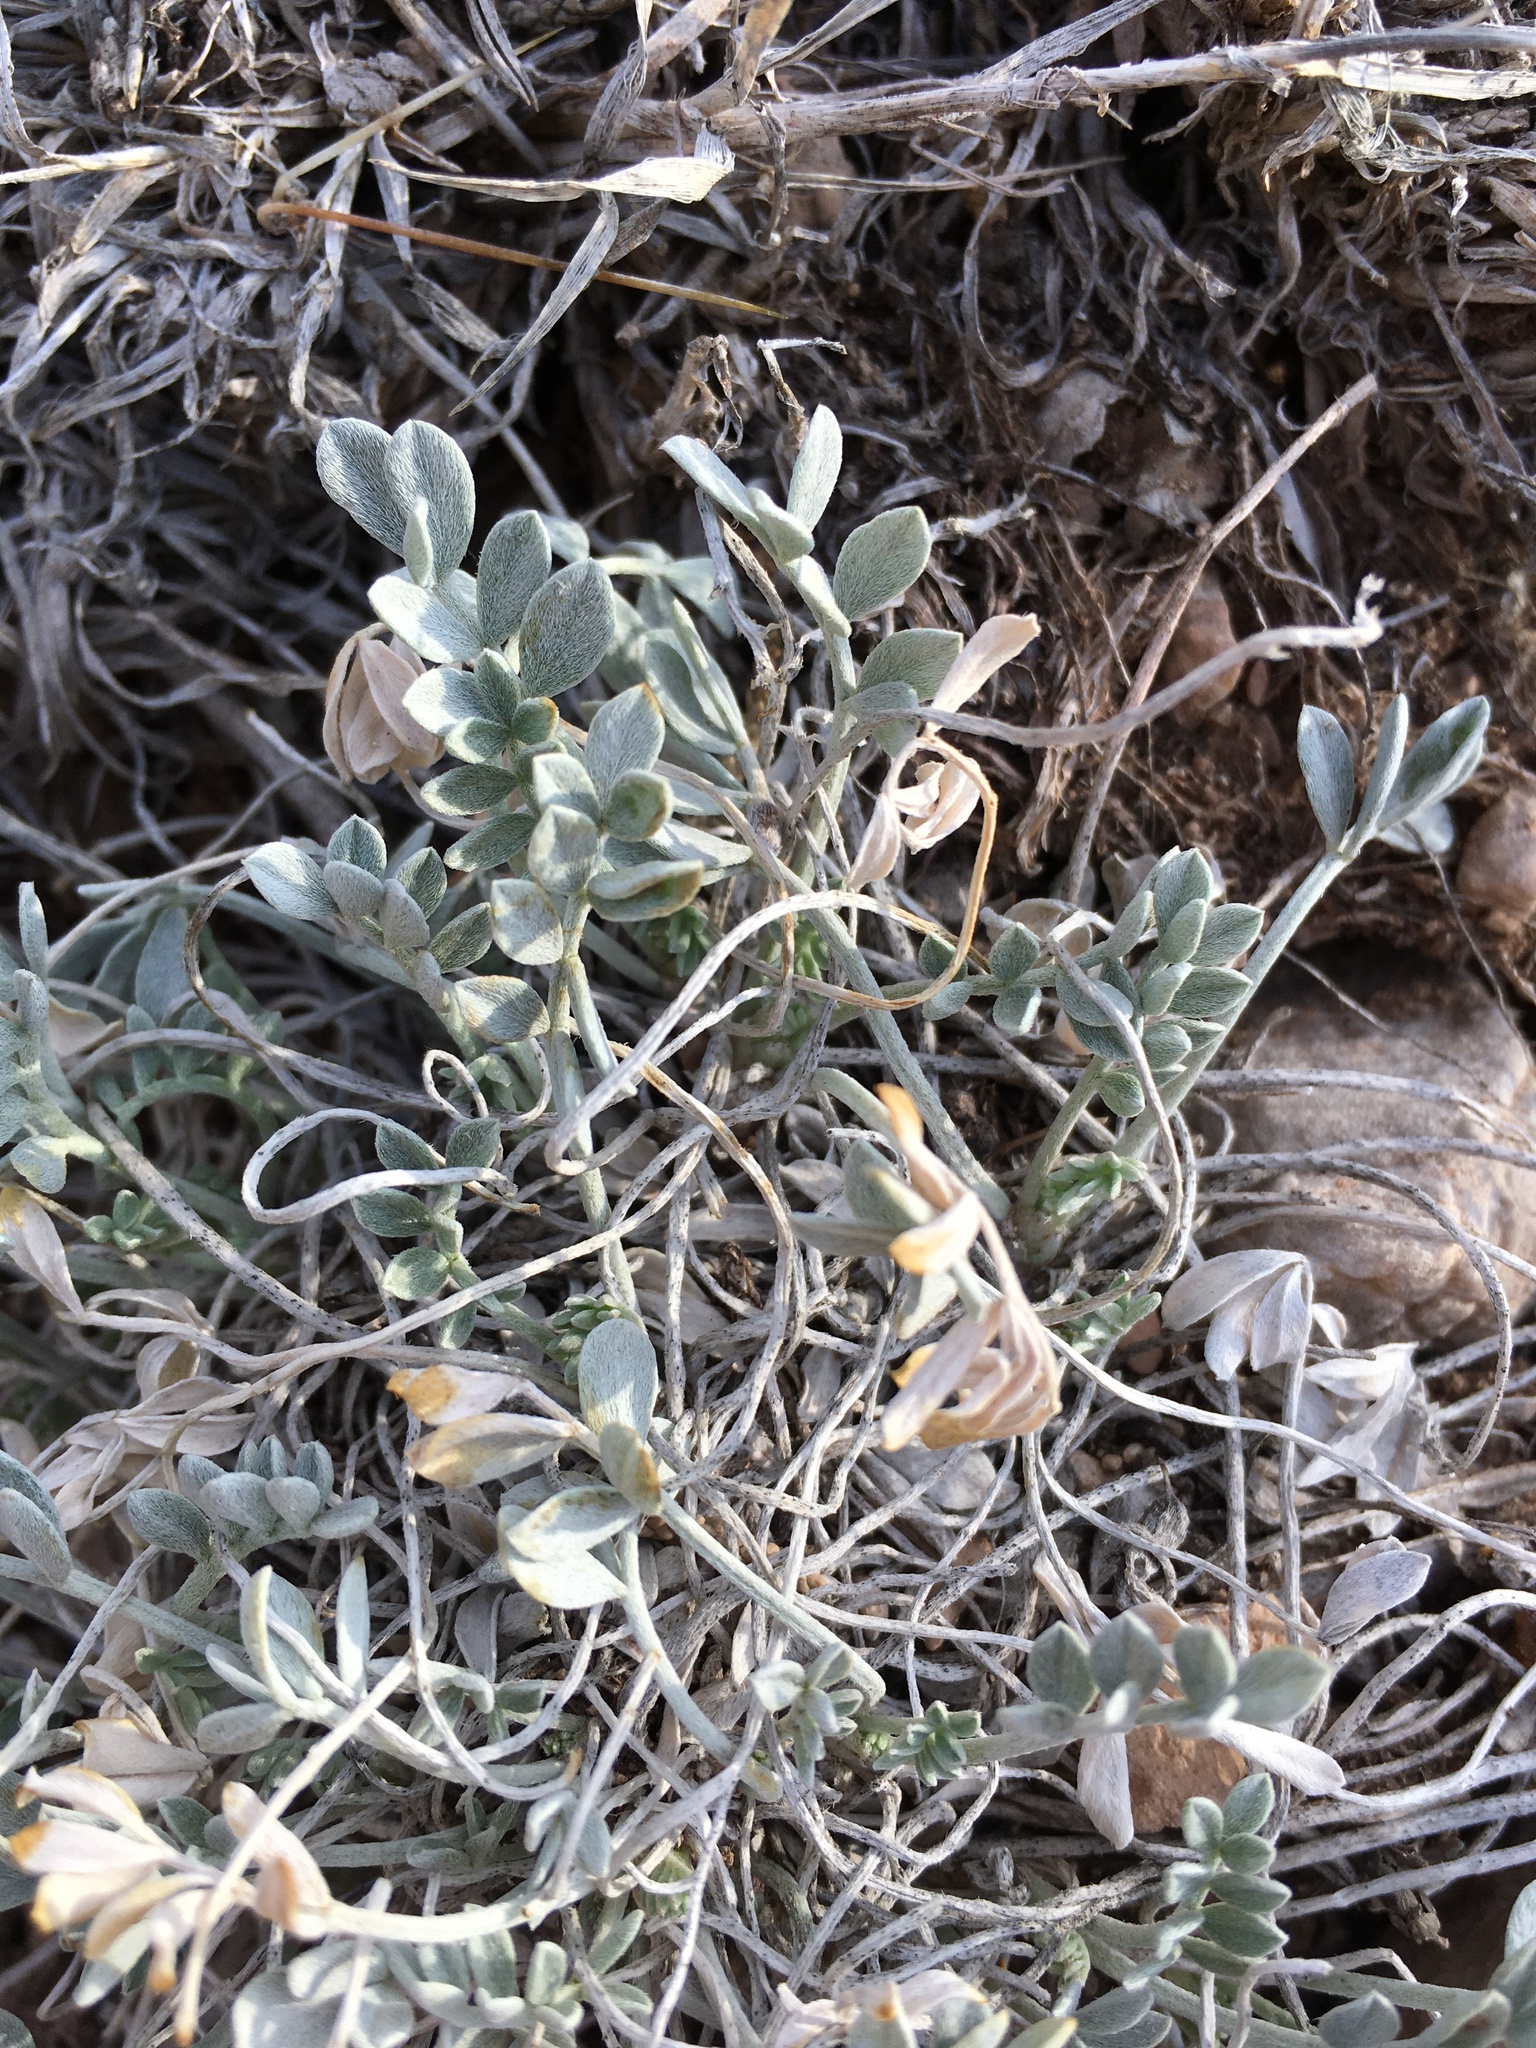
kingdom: Plantae
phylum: Tracheophyta
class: Magnoliopsida
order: Fabales
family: Fabaceae
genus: Astragalus
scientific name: Astragalus calycosus
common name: King's milkvetch
